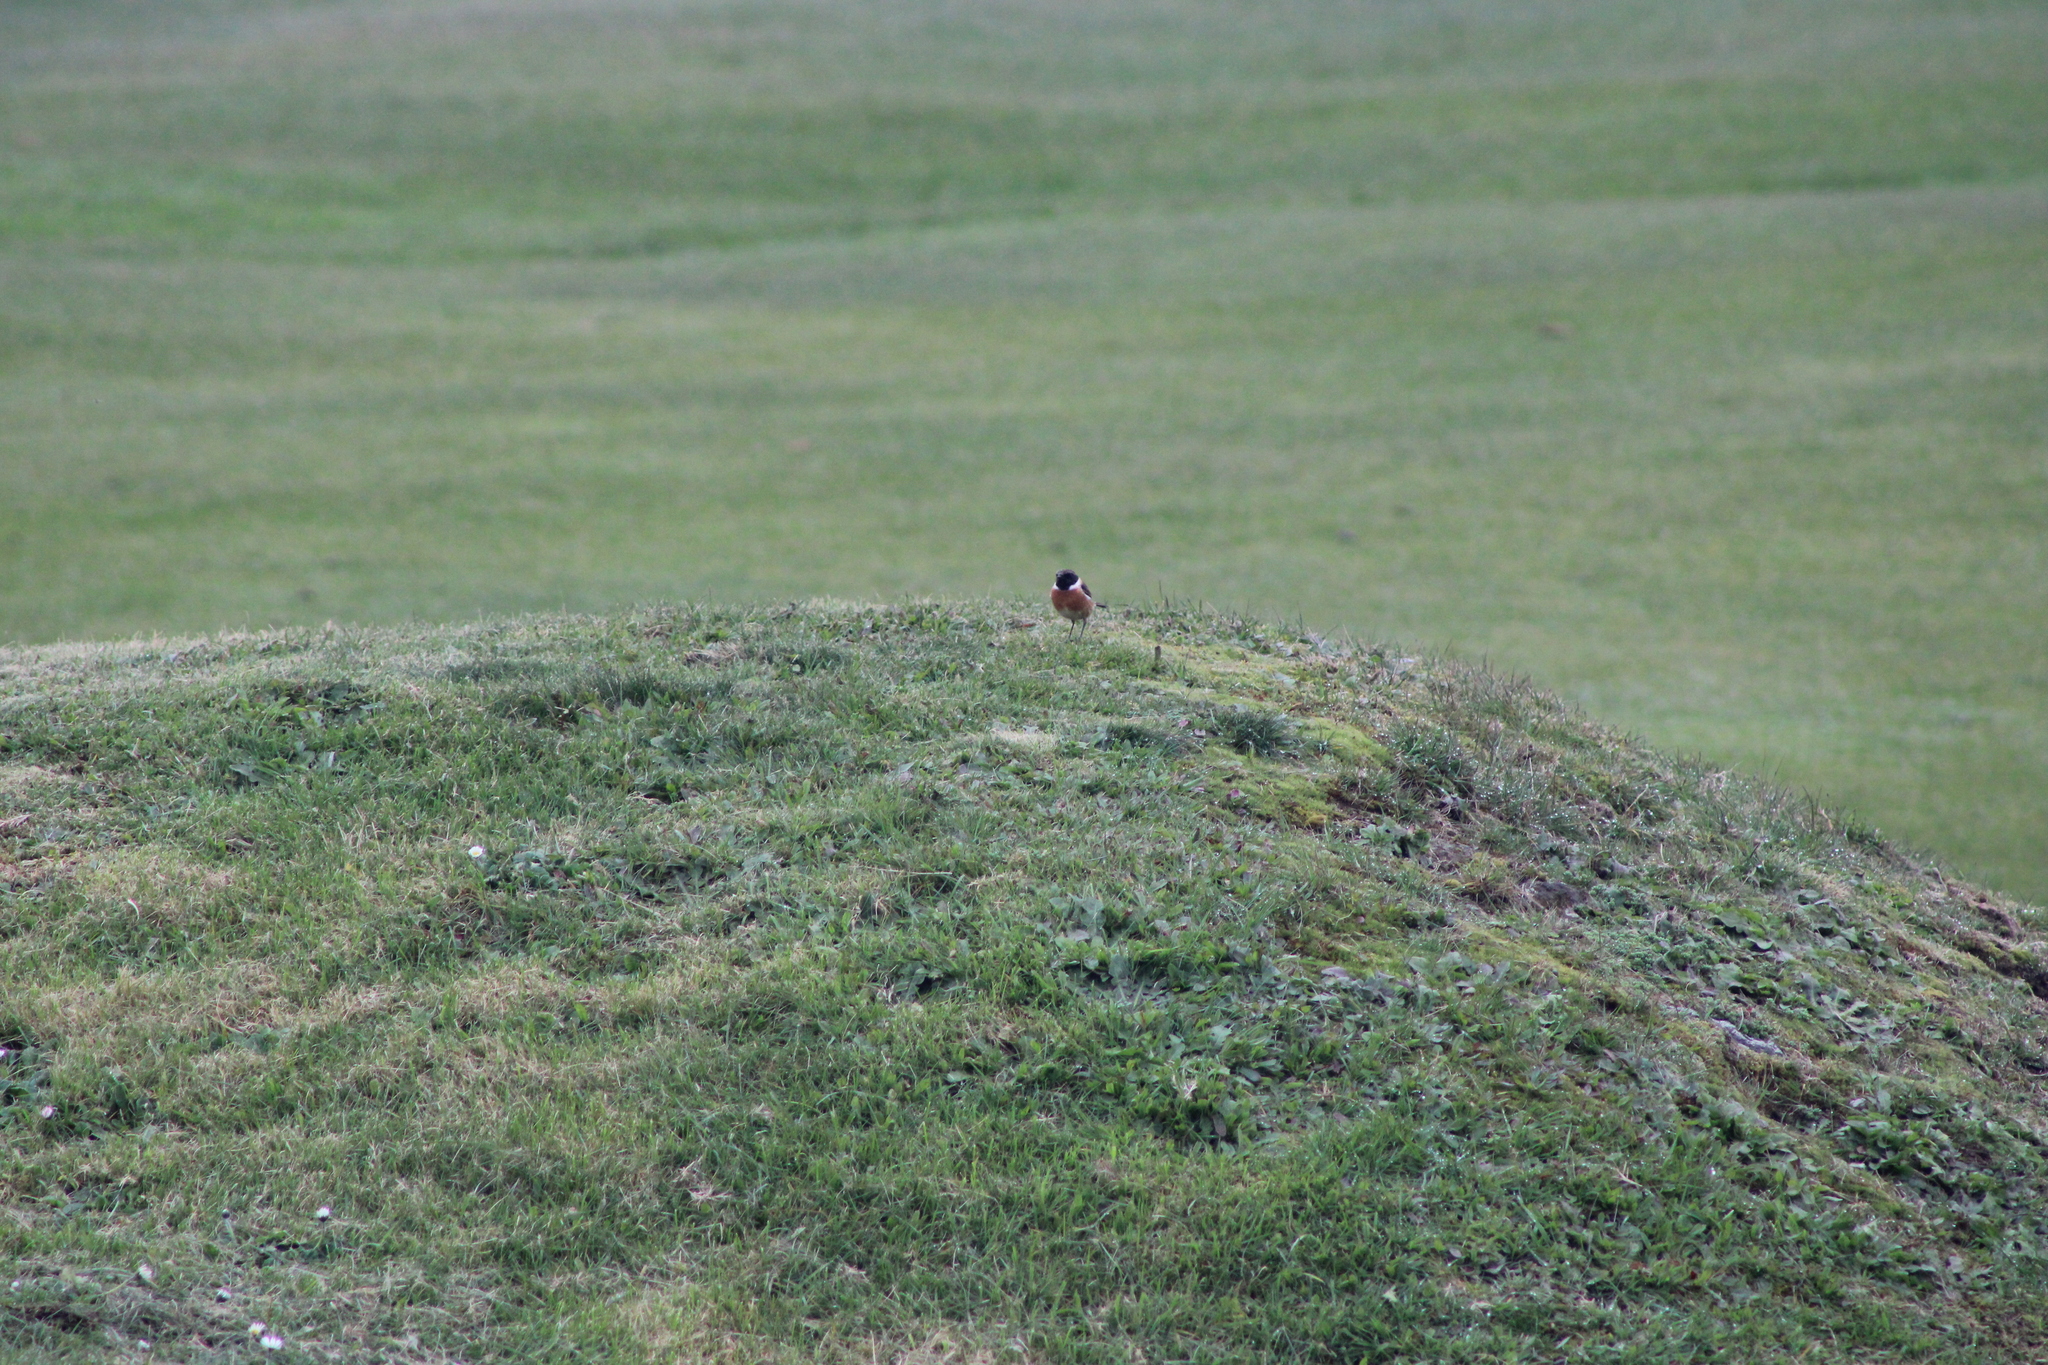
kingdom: Animalia
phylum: Chordata
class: Aves
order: Passeriformes
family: Muscicapidae
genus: Saxicola
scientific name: Saxicola rubicola
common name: European stonechat
